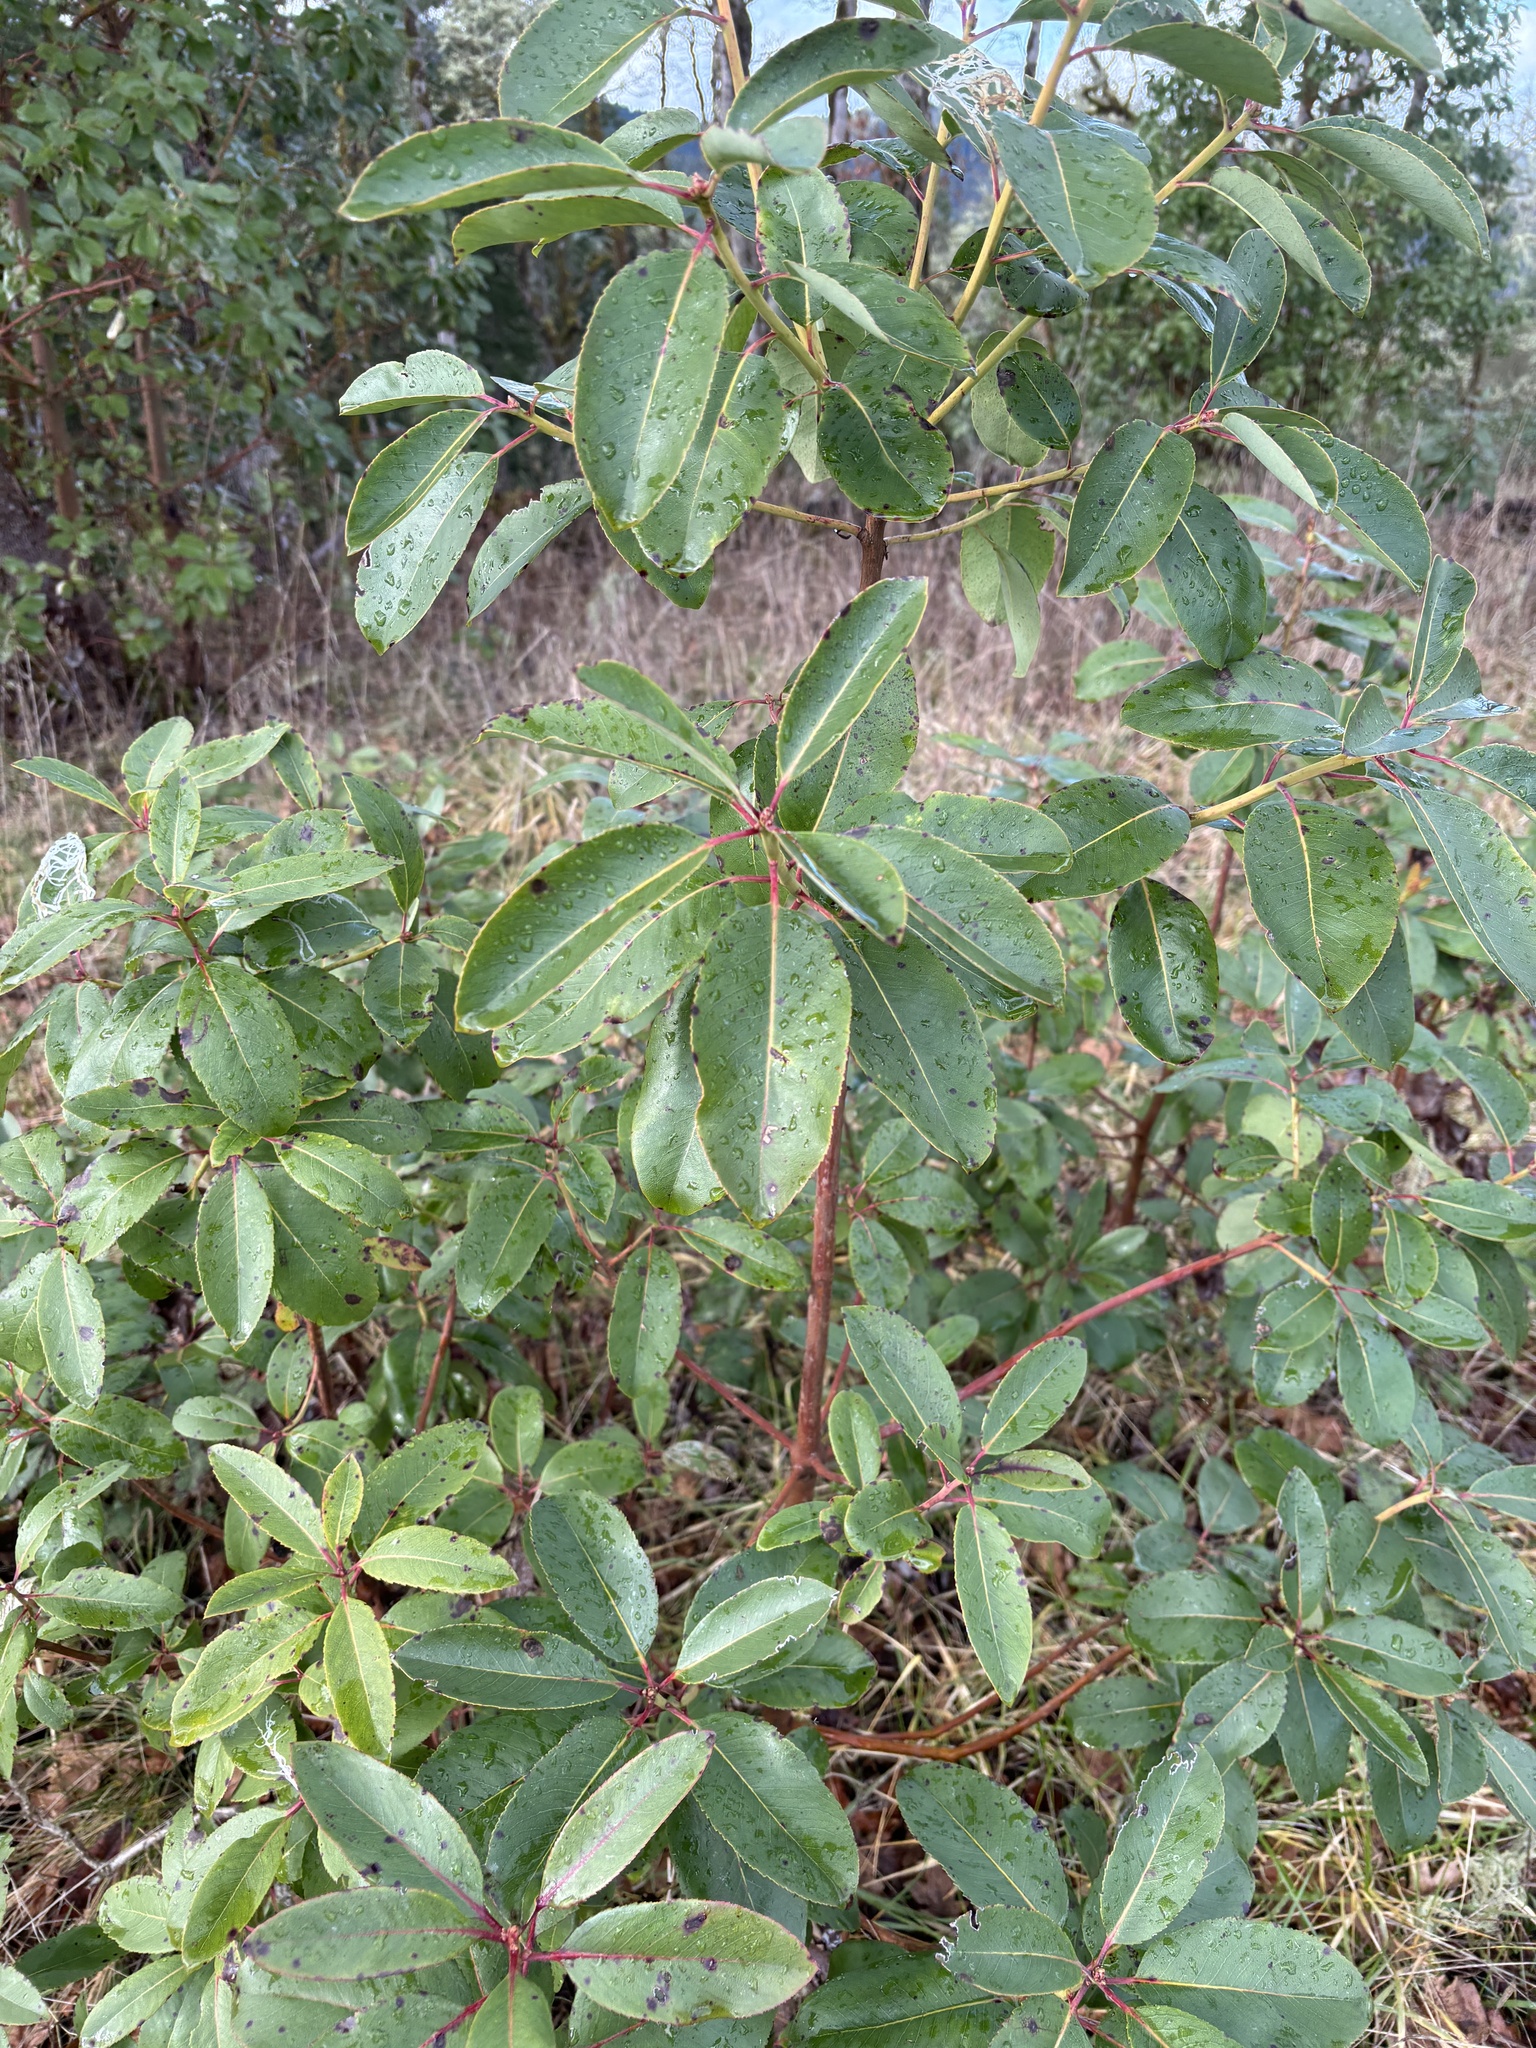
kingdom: Plantae
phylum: Tracheophyta
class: Magnoliopsida
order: Ericales
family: Ericaceae
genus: Arbutus
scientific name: Arbutus menziesii
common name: Pacific madrone
